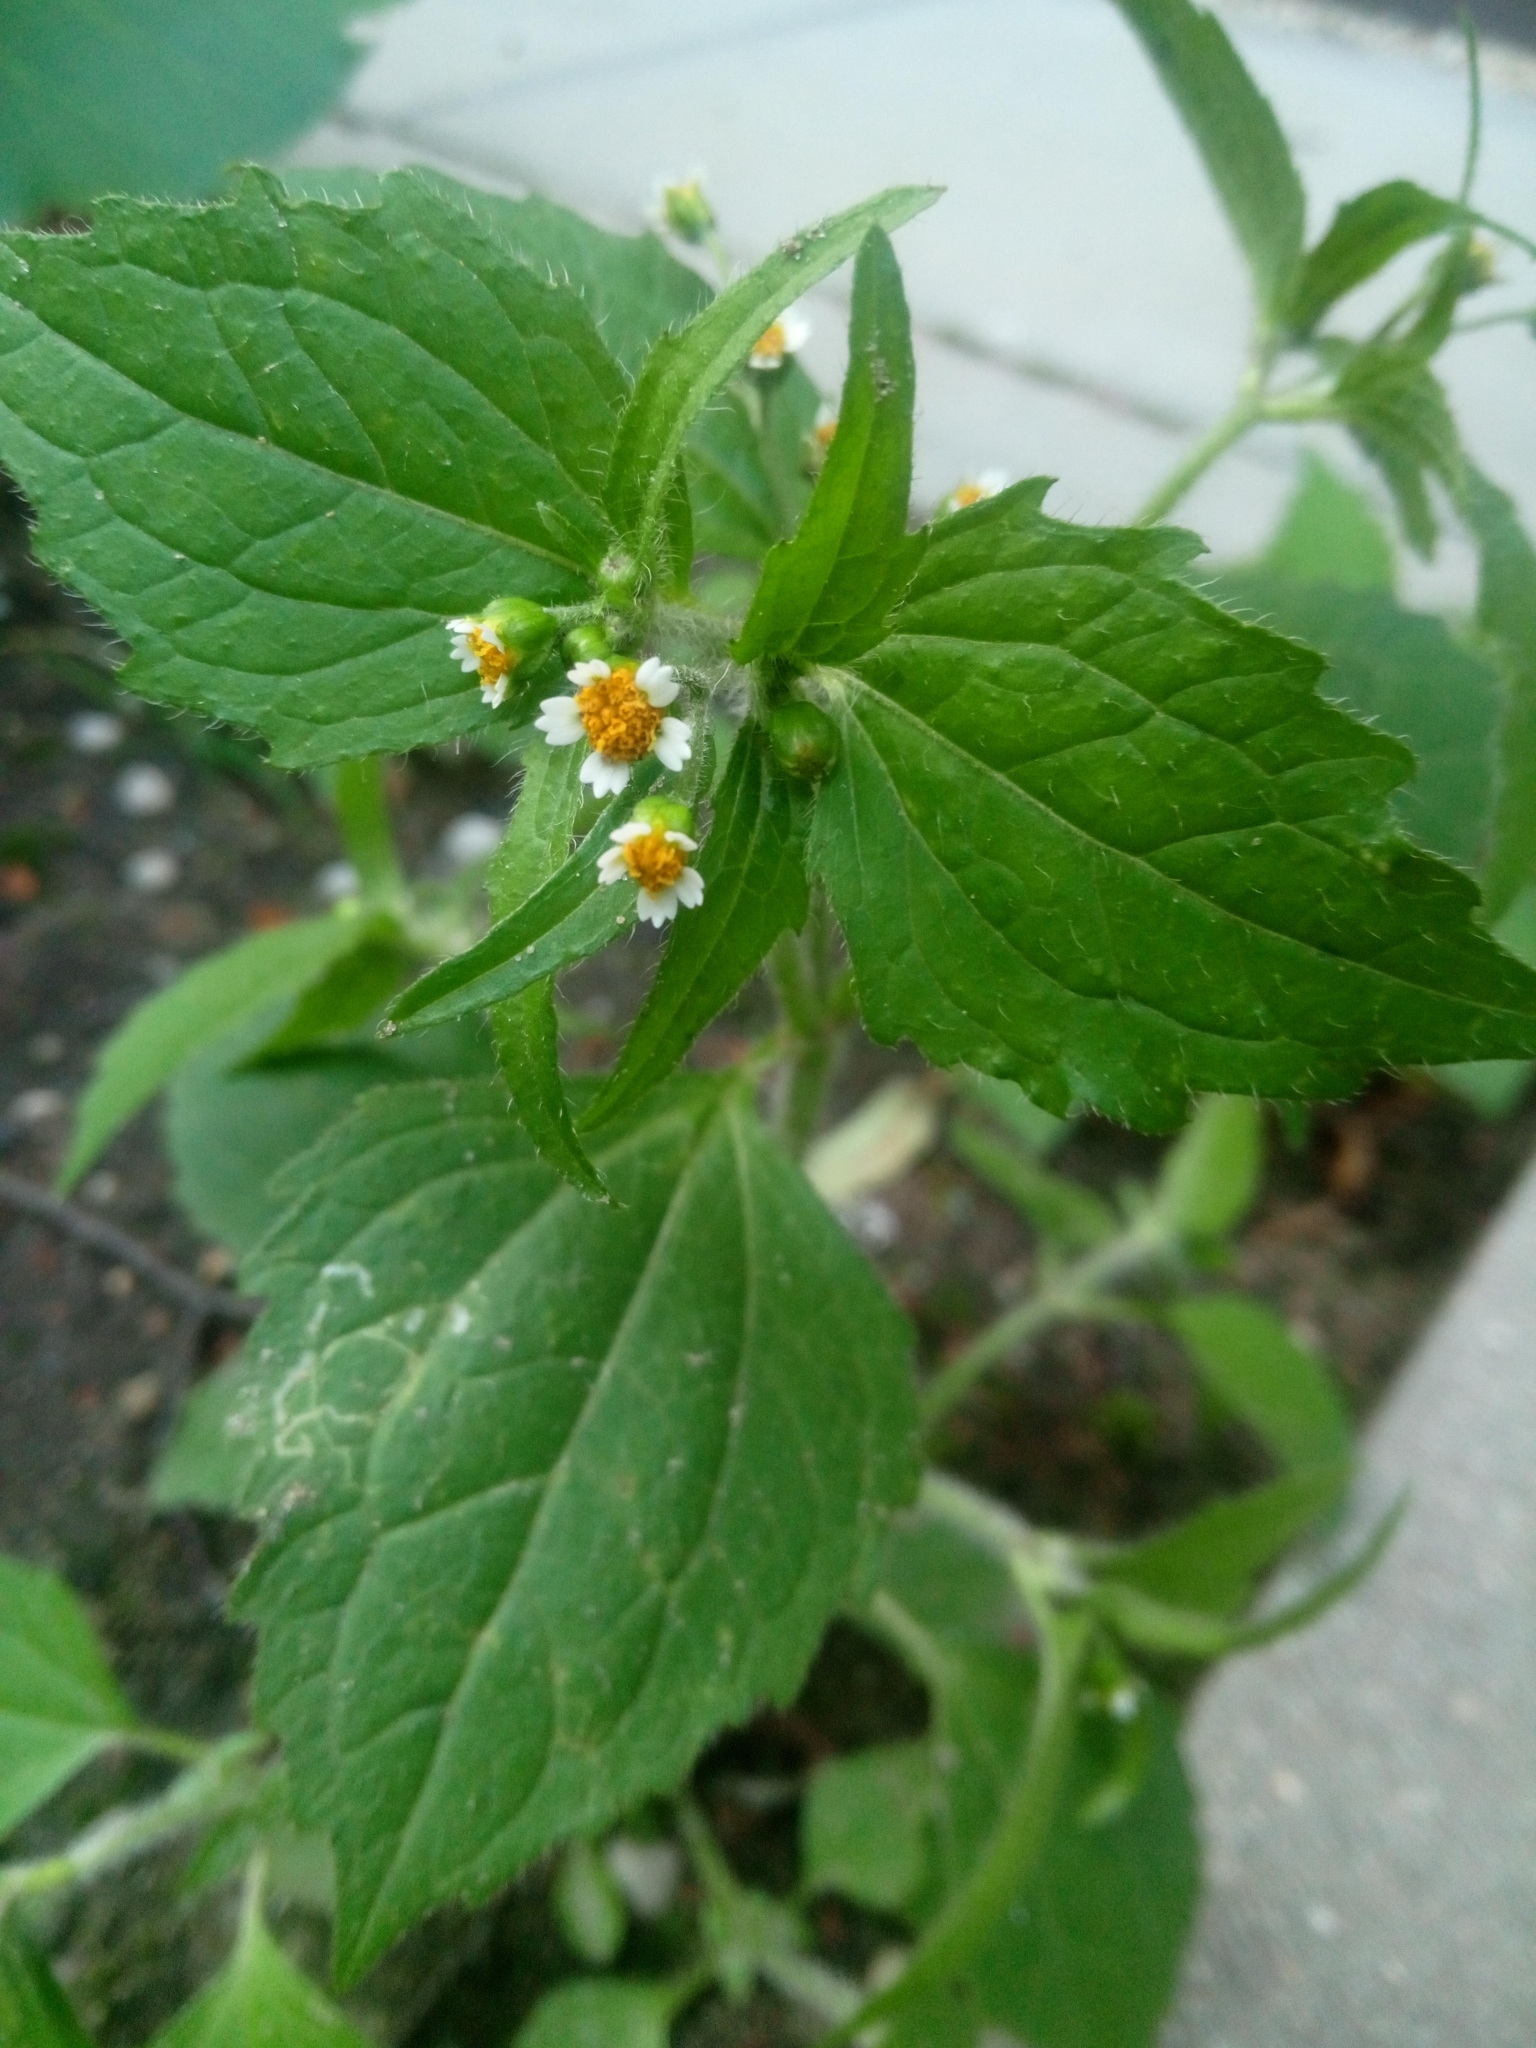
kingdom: Plantae
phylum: Tracheophyta
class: Magnoliopsida
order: Asterales
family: Asteraceae
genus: Galinsoga
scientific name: Galinsoga quadriradiata
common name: Shaggy soldier
